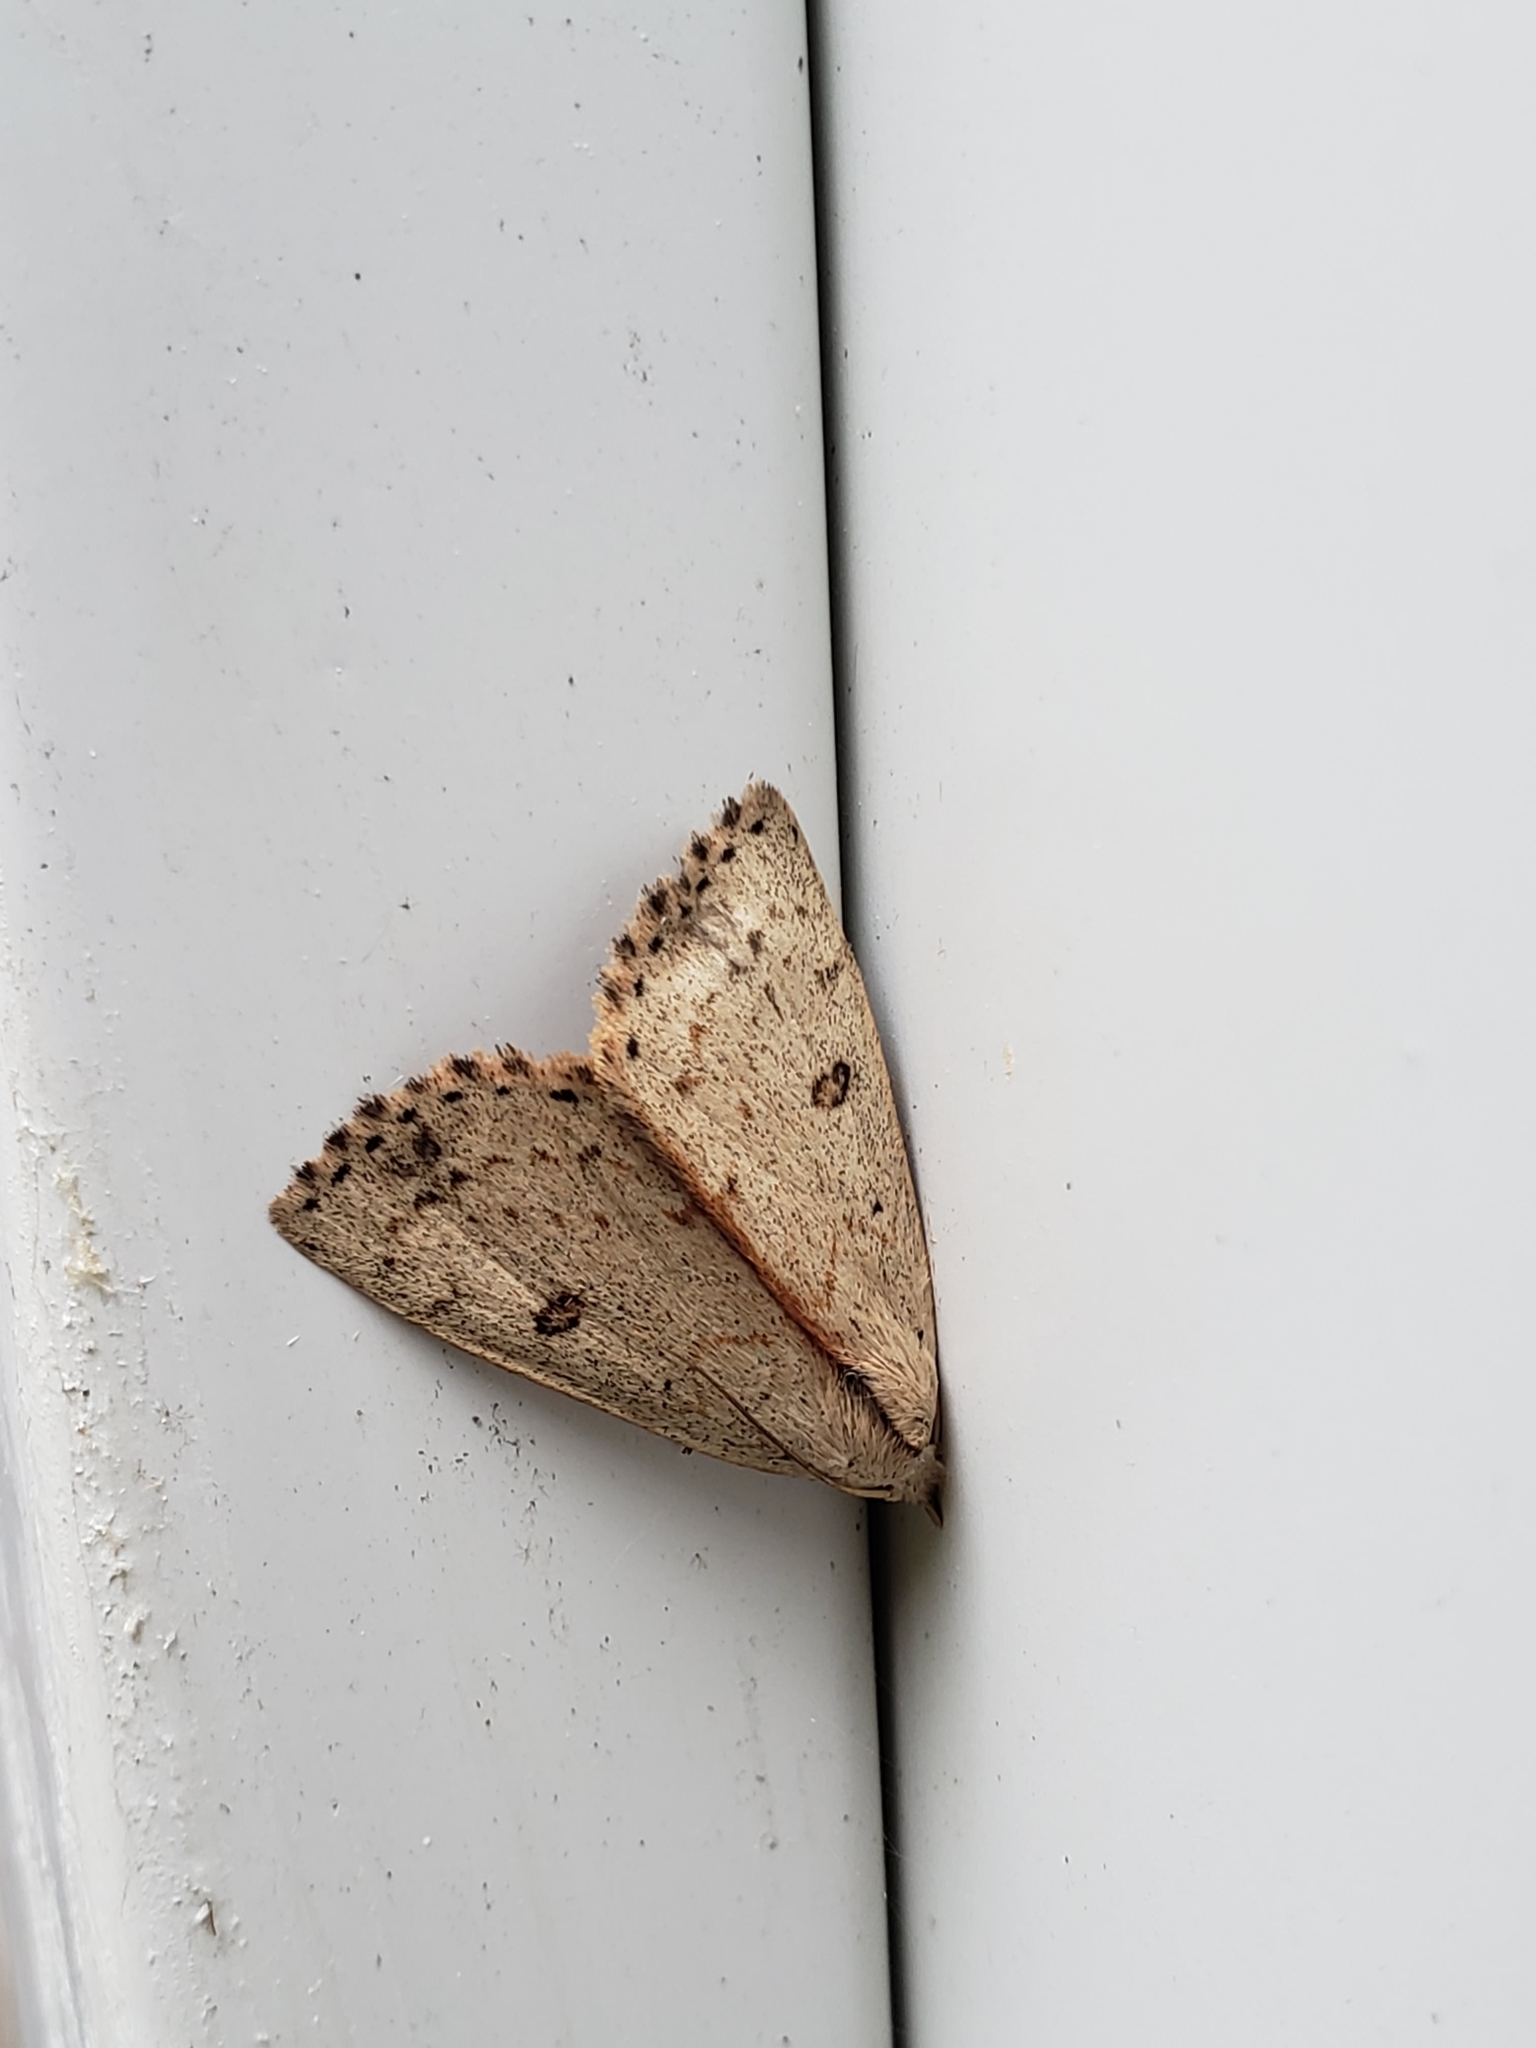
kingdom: Animalia
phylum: Arthropoda
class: Insecta
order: Lepidoptera
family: Erebidae
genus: Scolecocampa
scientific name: Scolecocampa liburna
